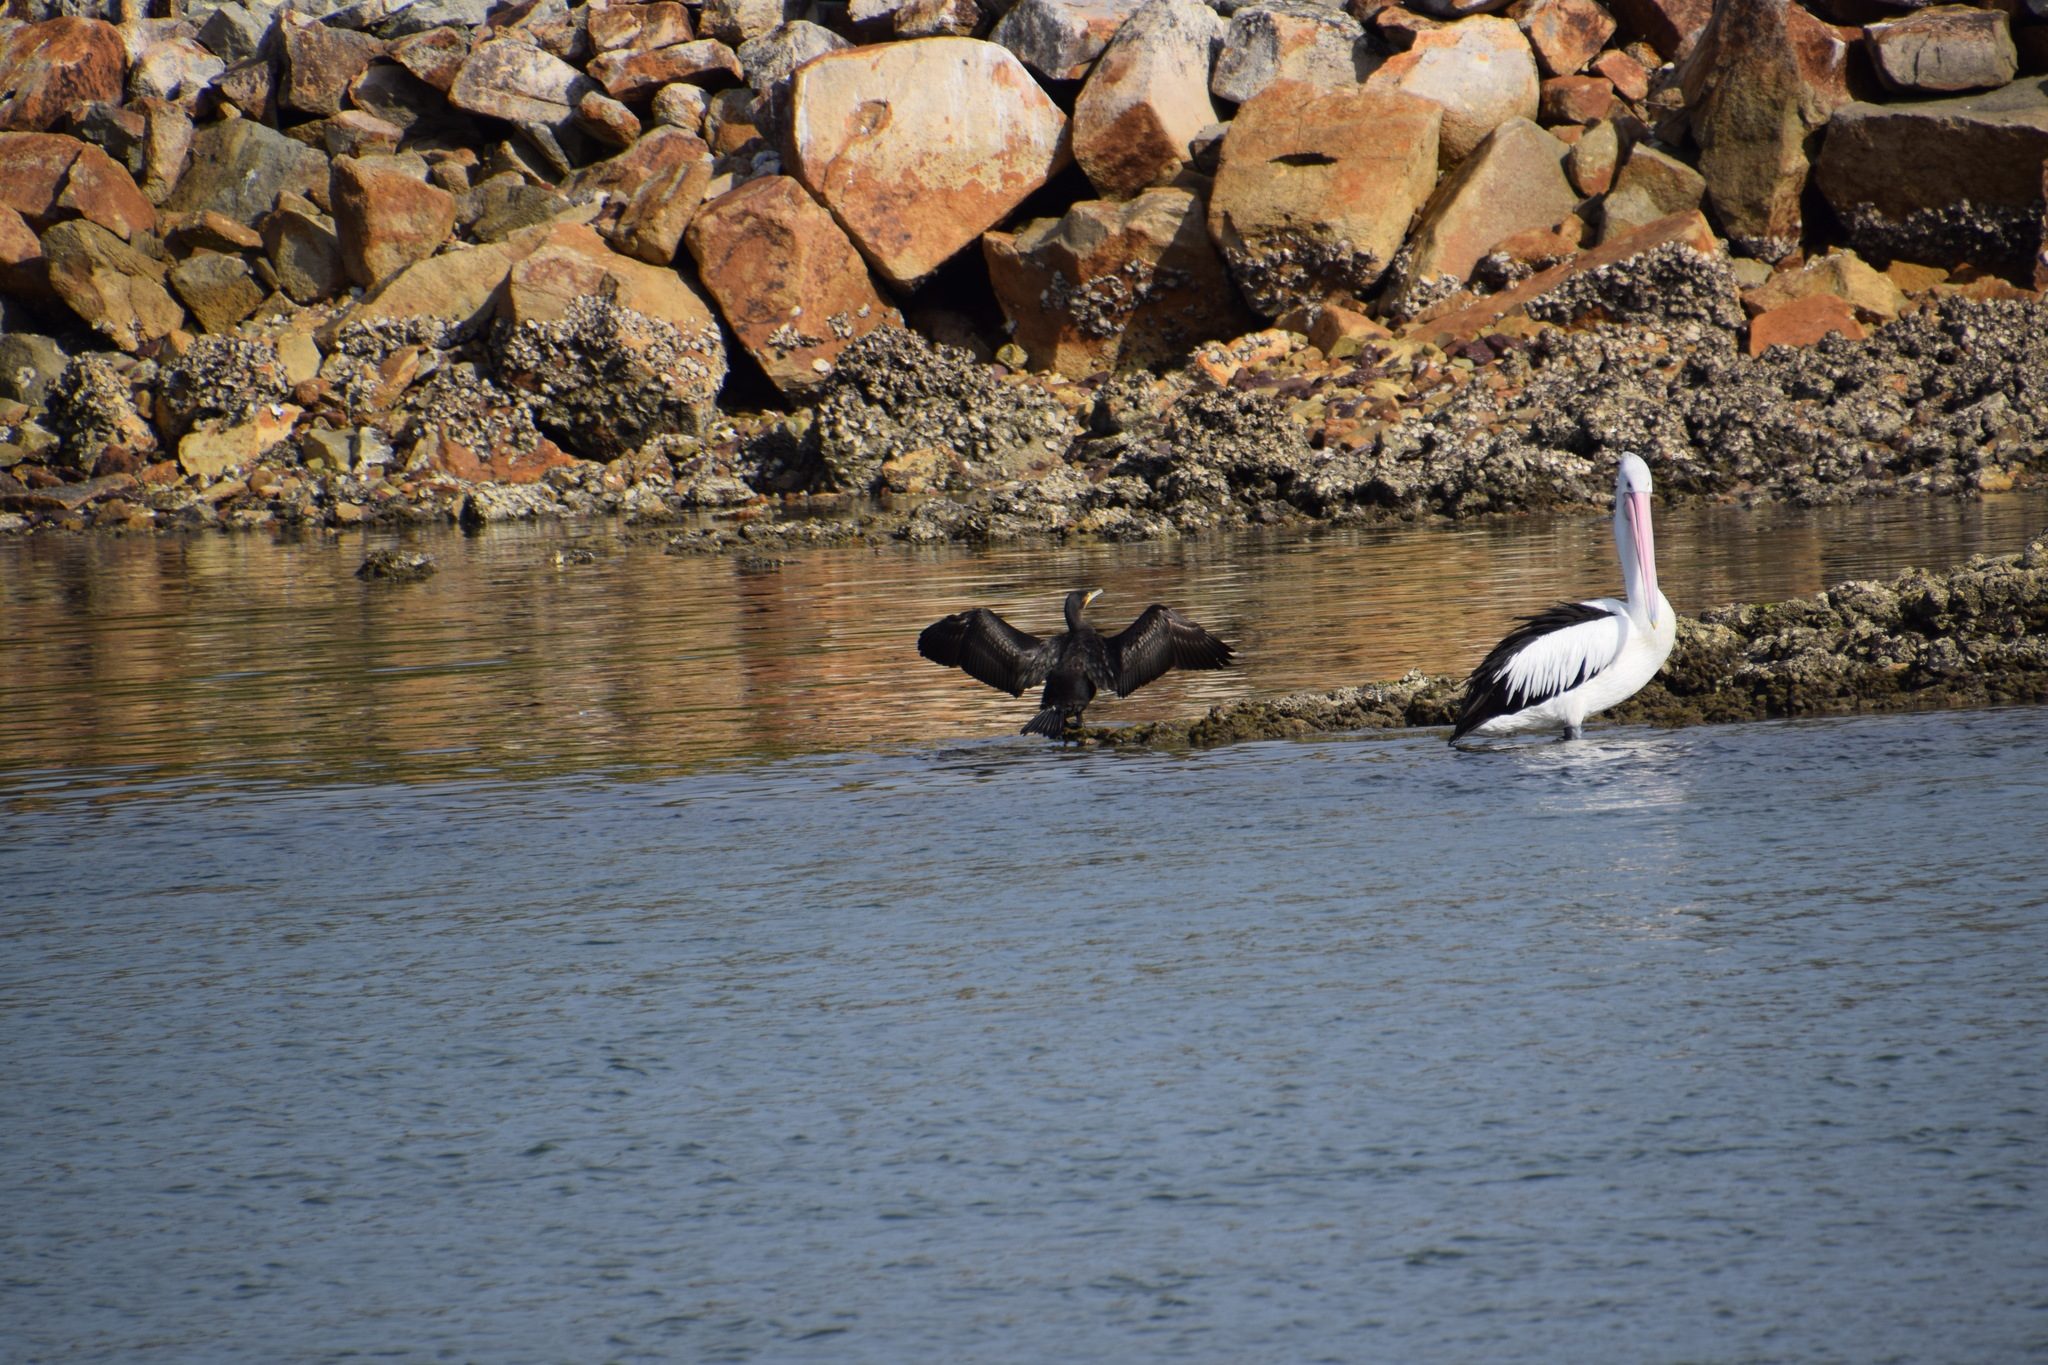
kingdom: Animalia
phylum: Chordata
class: Aves
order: Suliformes
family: Phalacrocoracidae
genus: Phalacrocorax
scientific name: Phalacrocorax carbo
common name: Great cormorant
